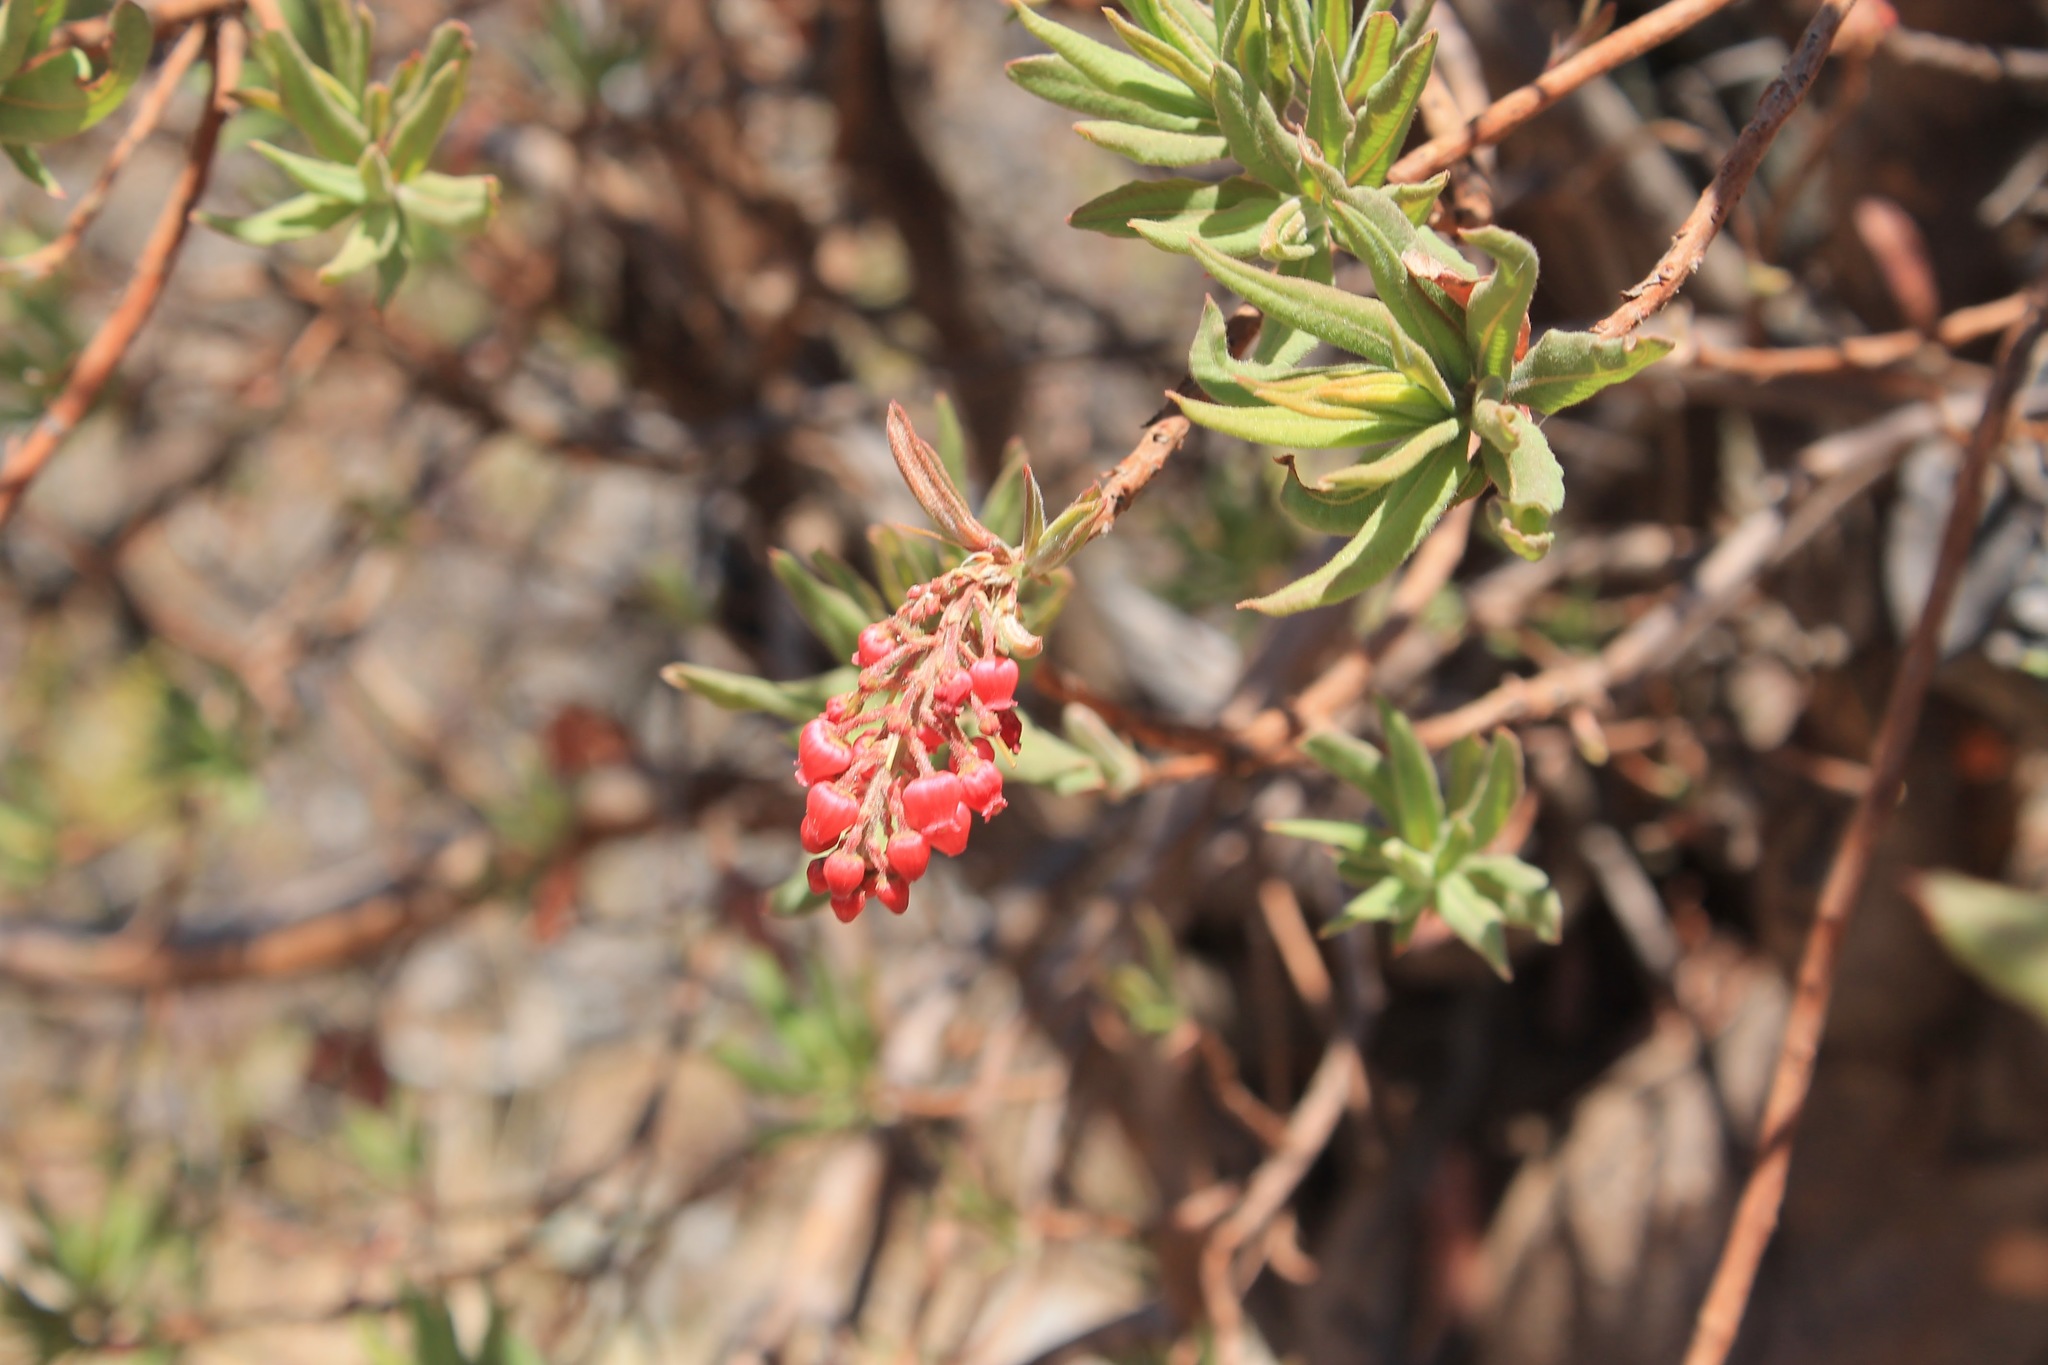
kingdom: Plantae
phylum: Tracheophyta
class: Magnoliopsida
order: Ericales
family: Ericaceae
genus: Comarostaphylis
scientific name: Comarostaphylis glaucescens
